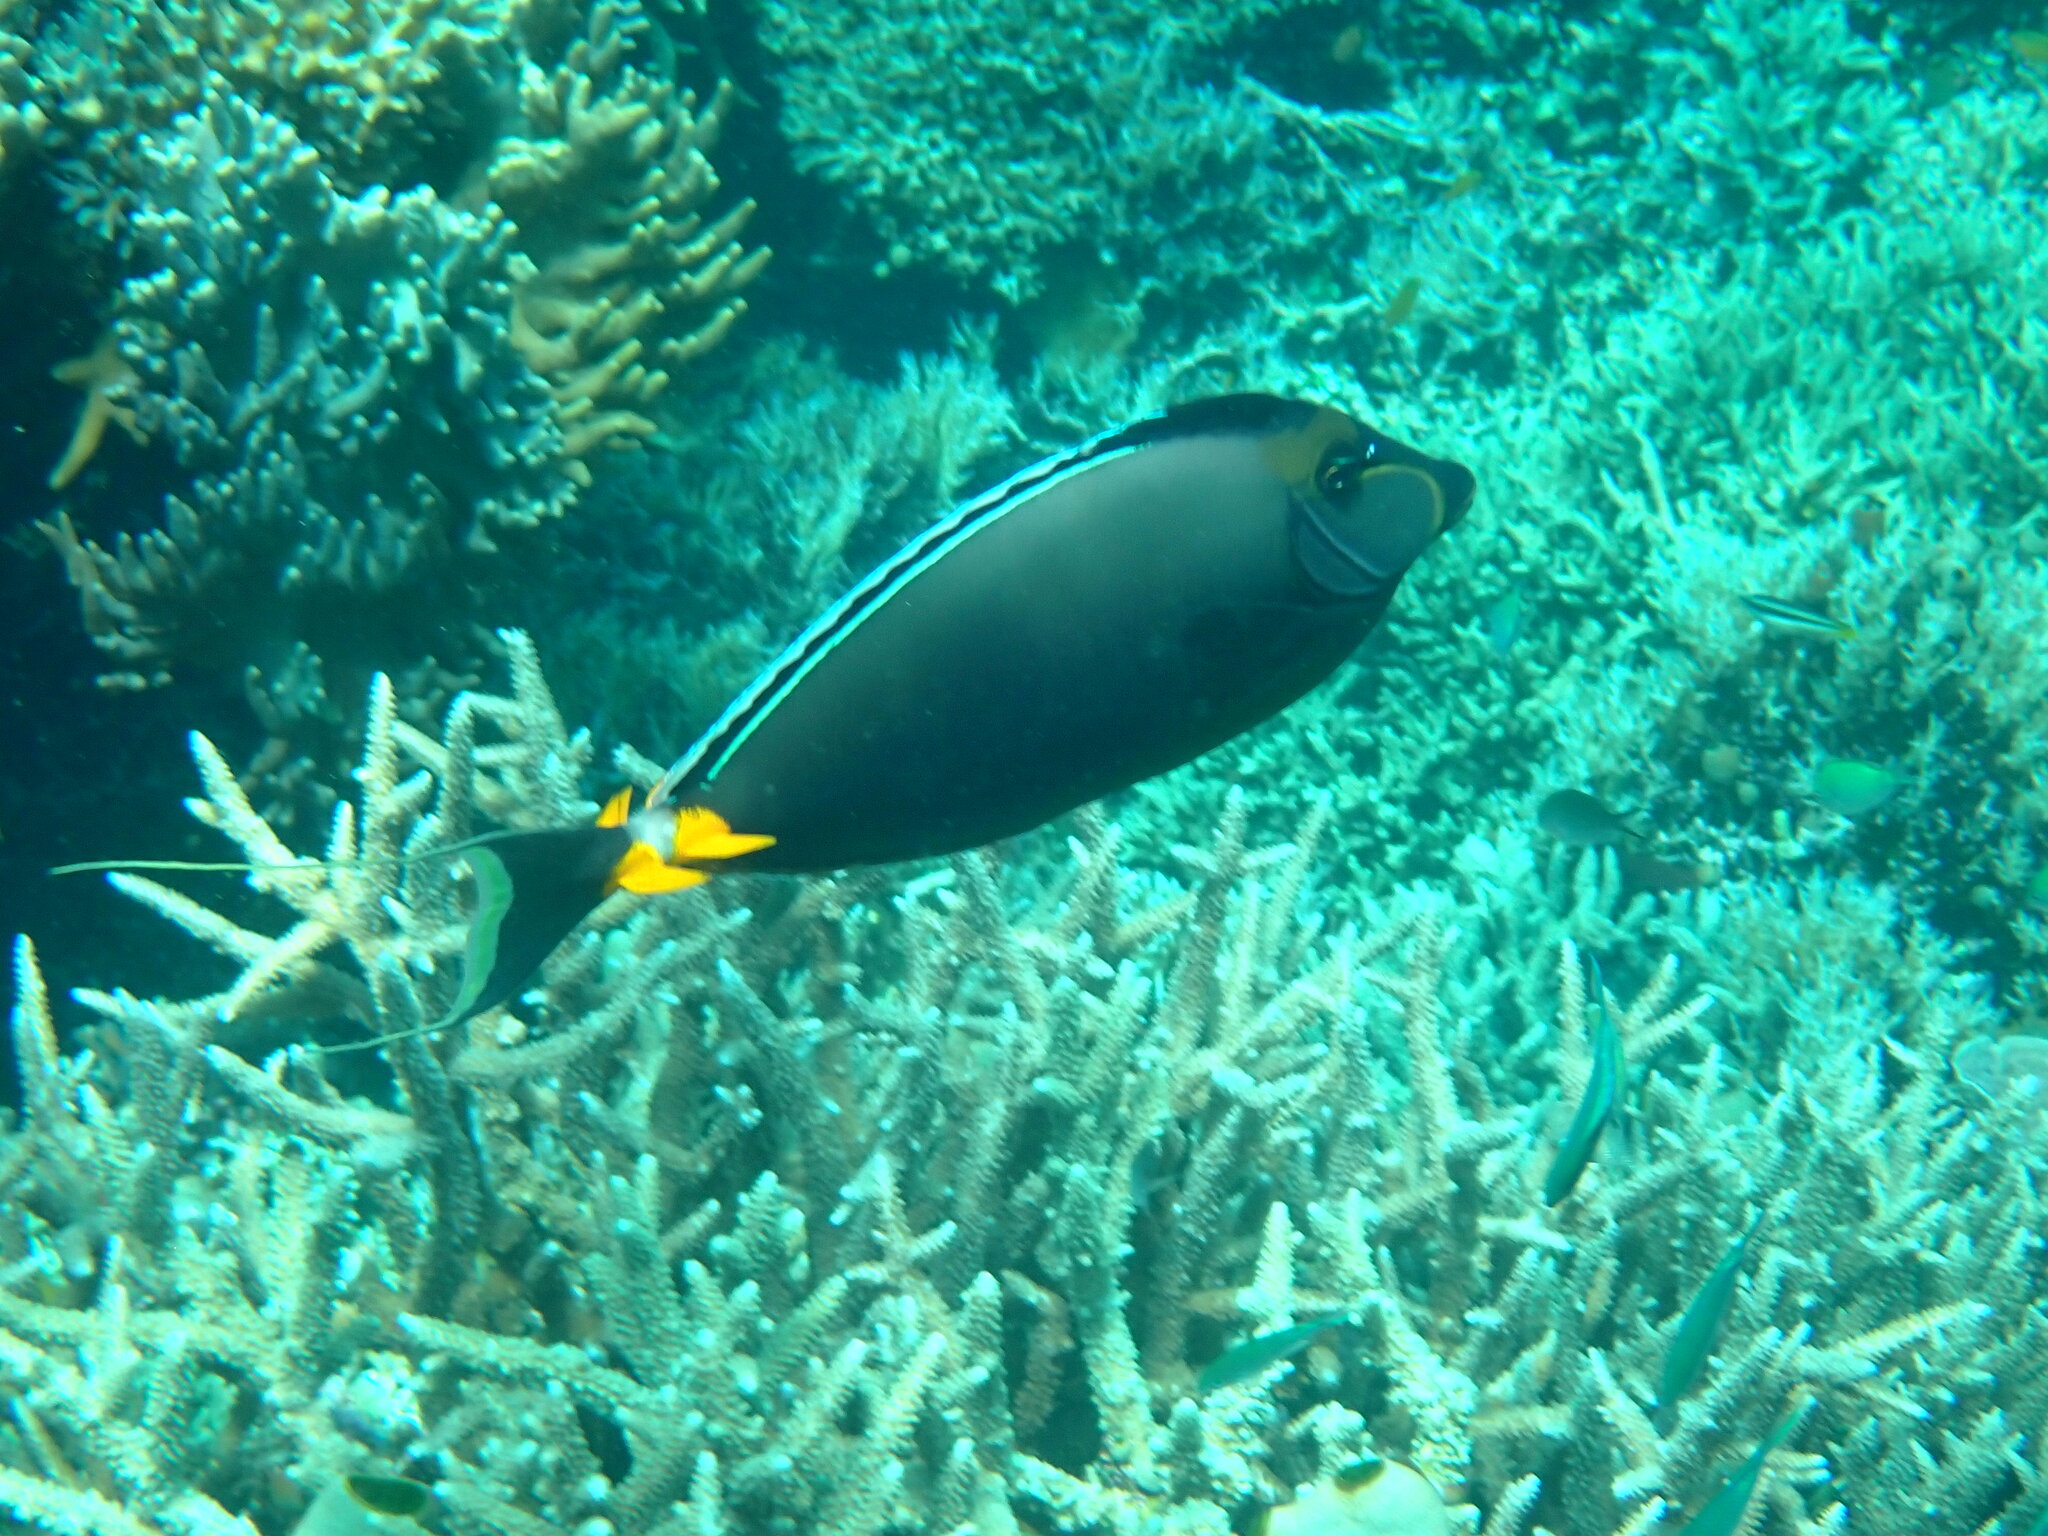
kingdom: Animalia
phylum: Chordata
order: Perciformes
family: Acanthuridae
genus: Naso
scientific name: Naso lituratus
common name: Orangespine unicornfish
